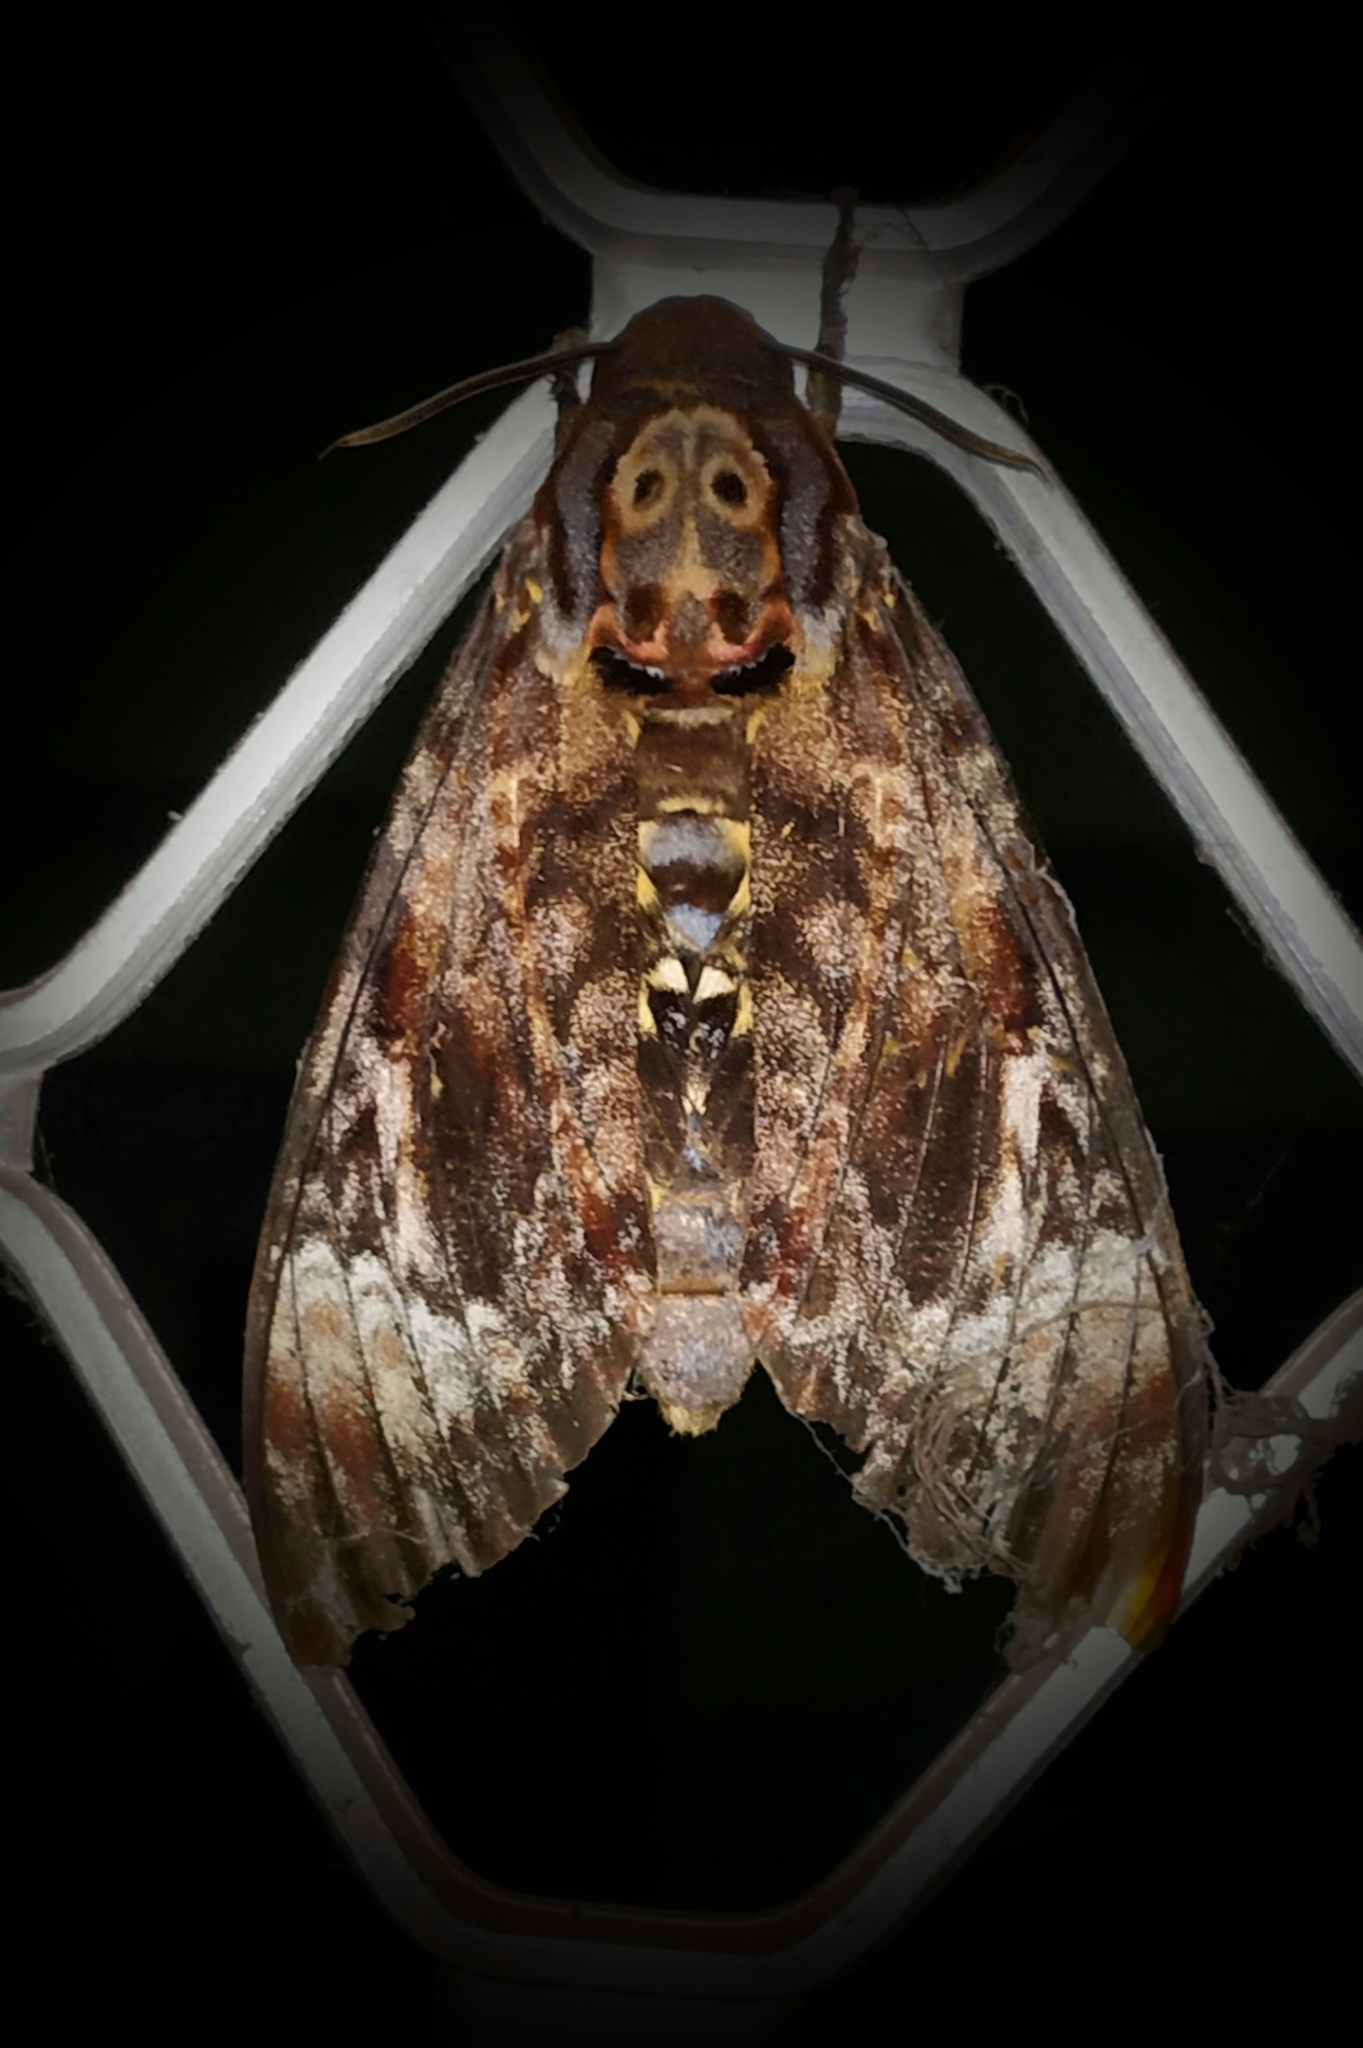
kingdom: Animalia
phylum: Arthropoda
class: Insecta
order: Lepidoptera
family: Sphingidae
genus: Acherontia
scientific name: Acherontia lachesis
